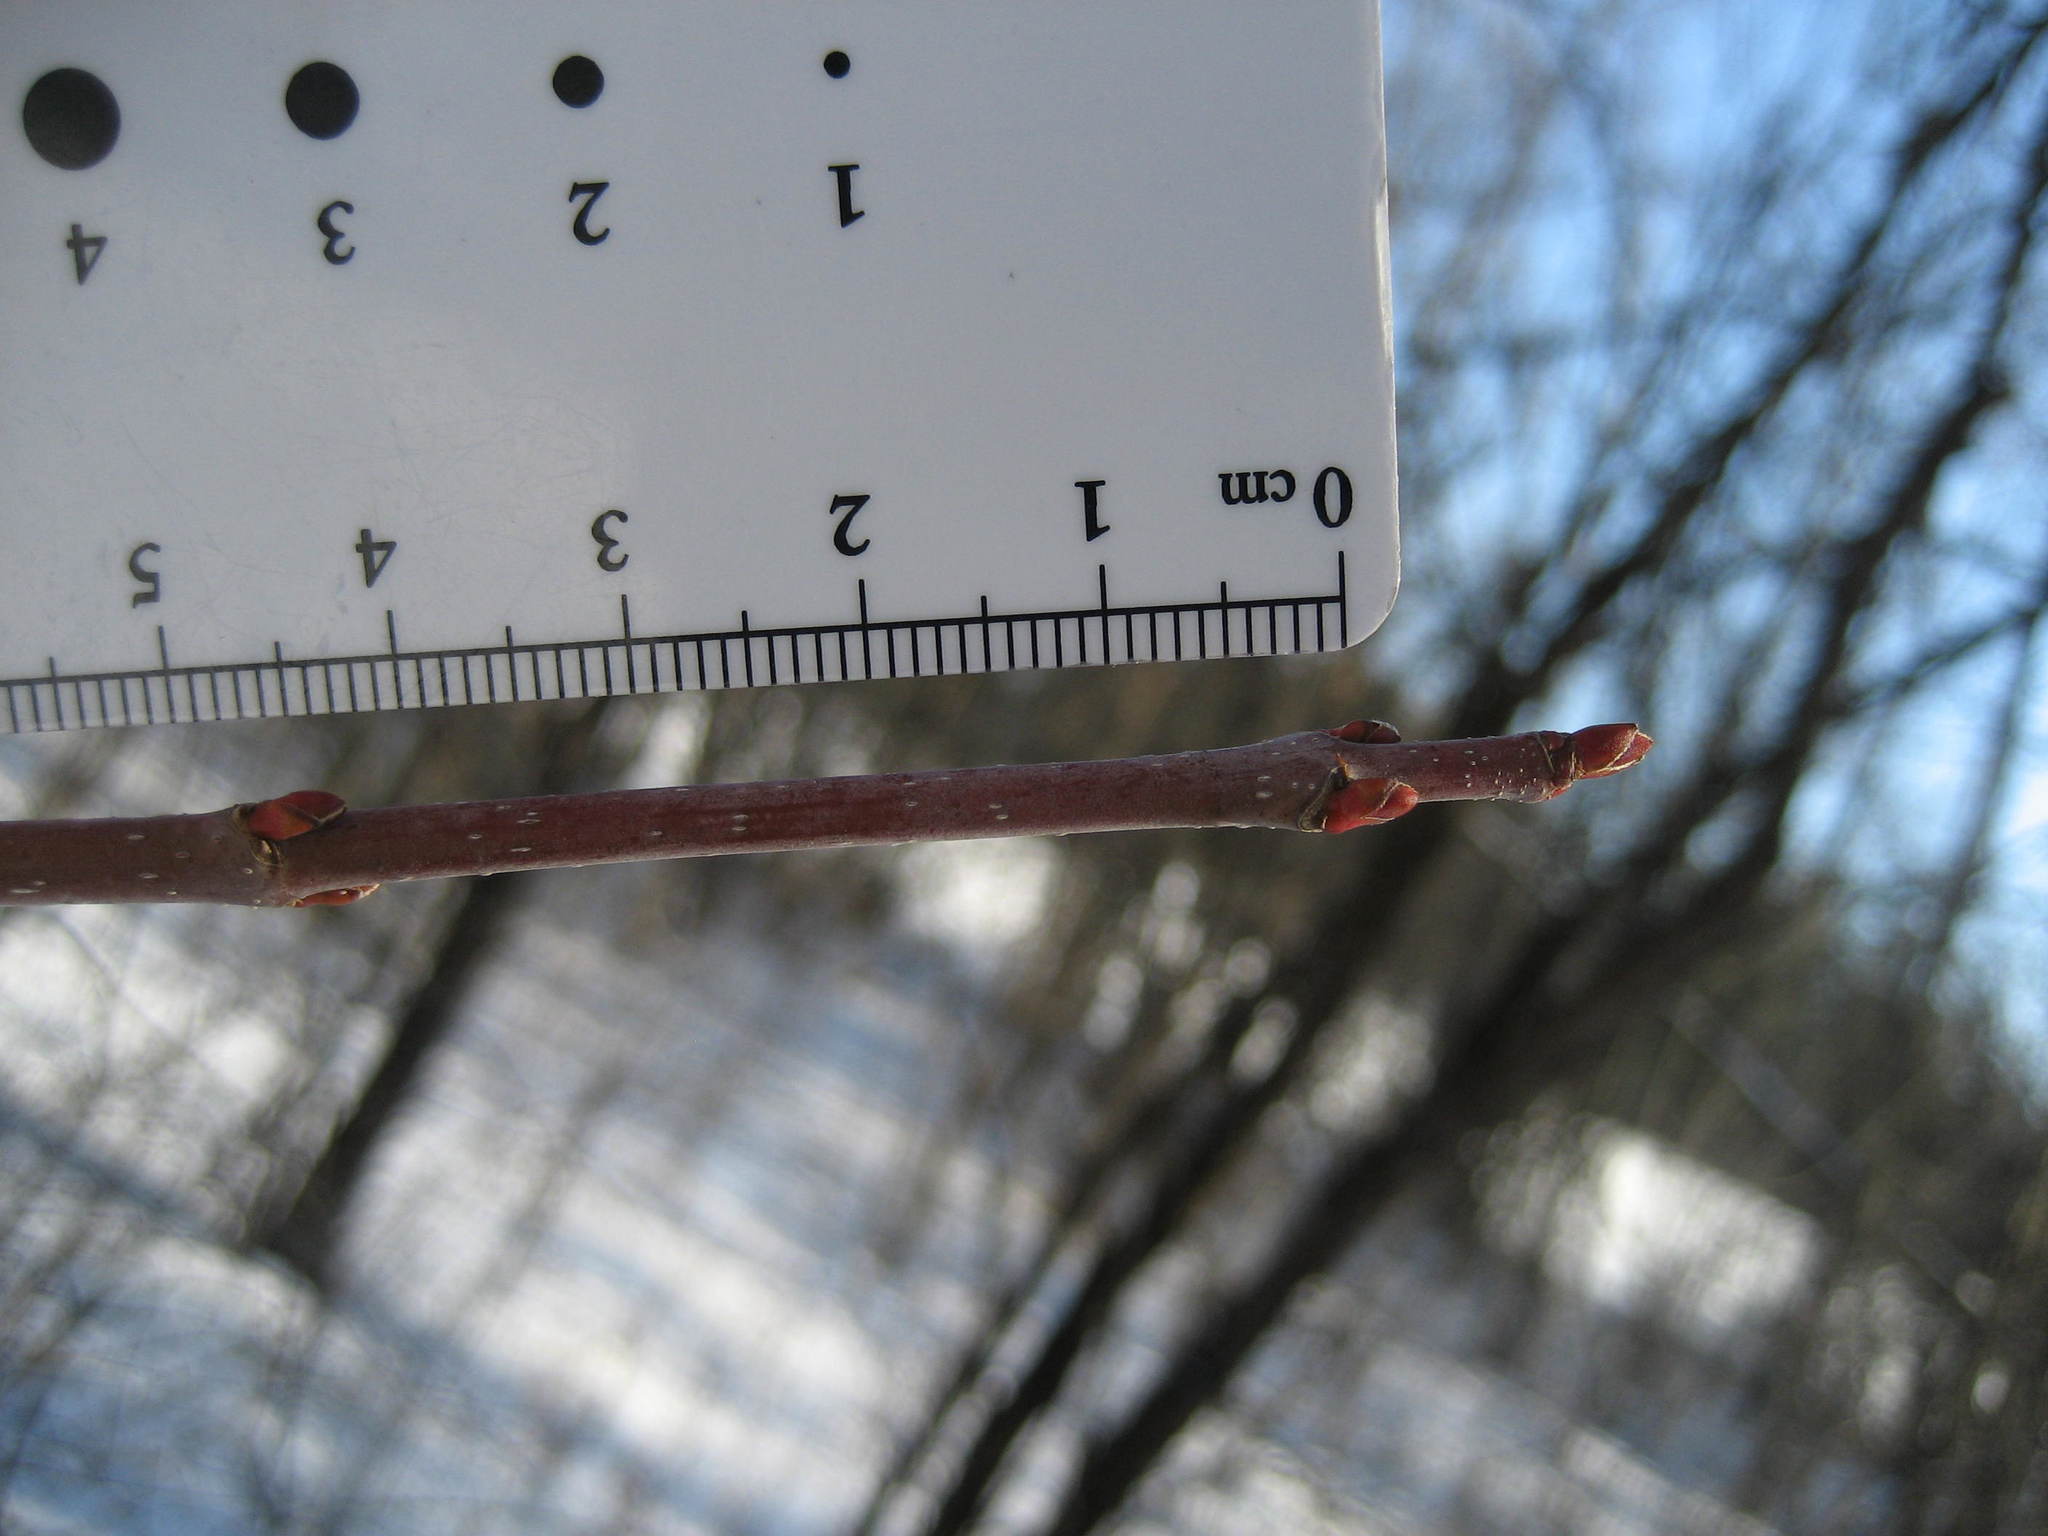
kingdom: Plantae
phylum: Tracheophyta
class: Magnoliopsida
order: Sapindales
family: Sapindaceae
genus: Acer
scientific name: Acer rubrum
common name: Red maple
